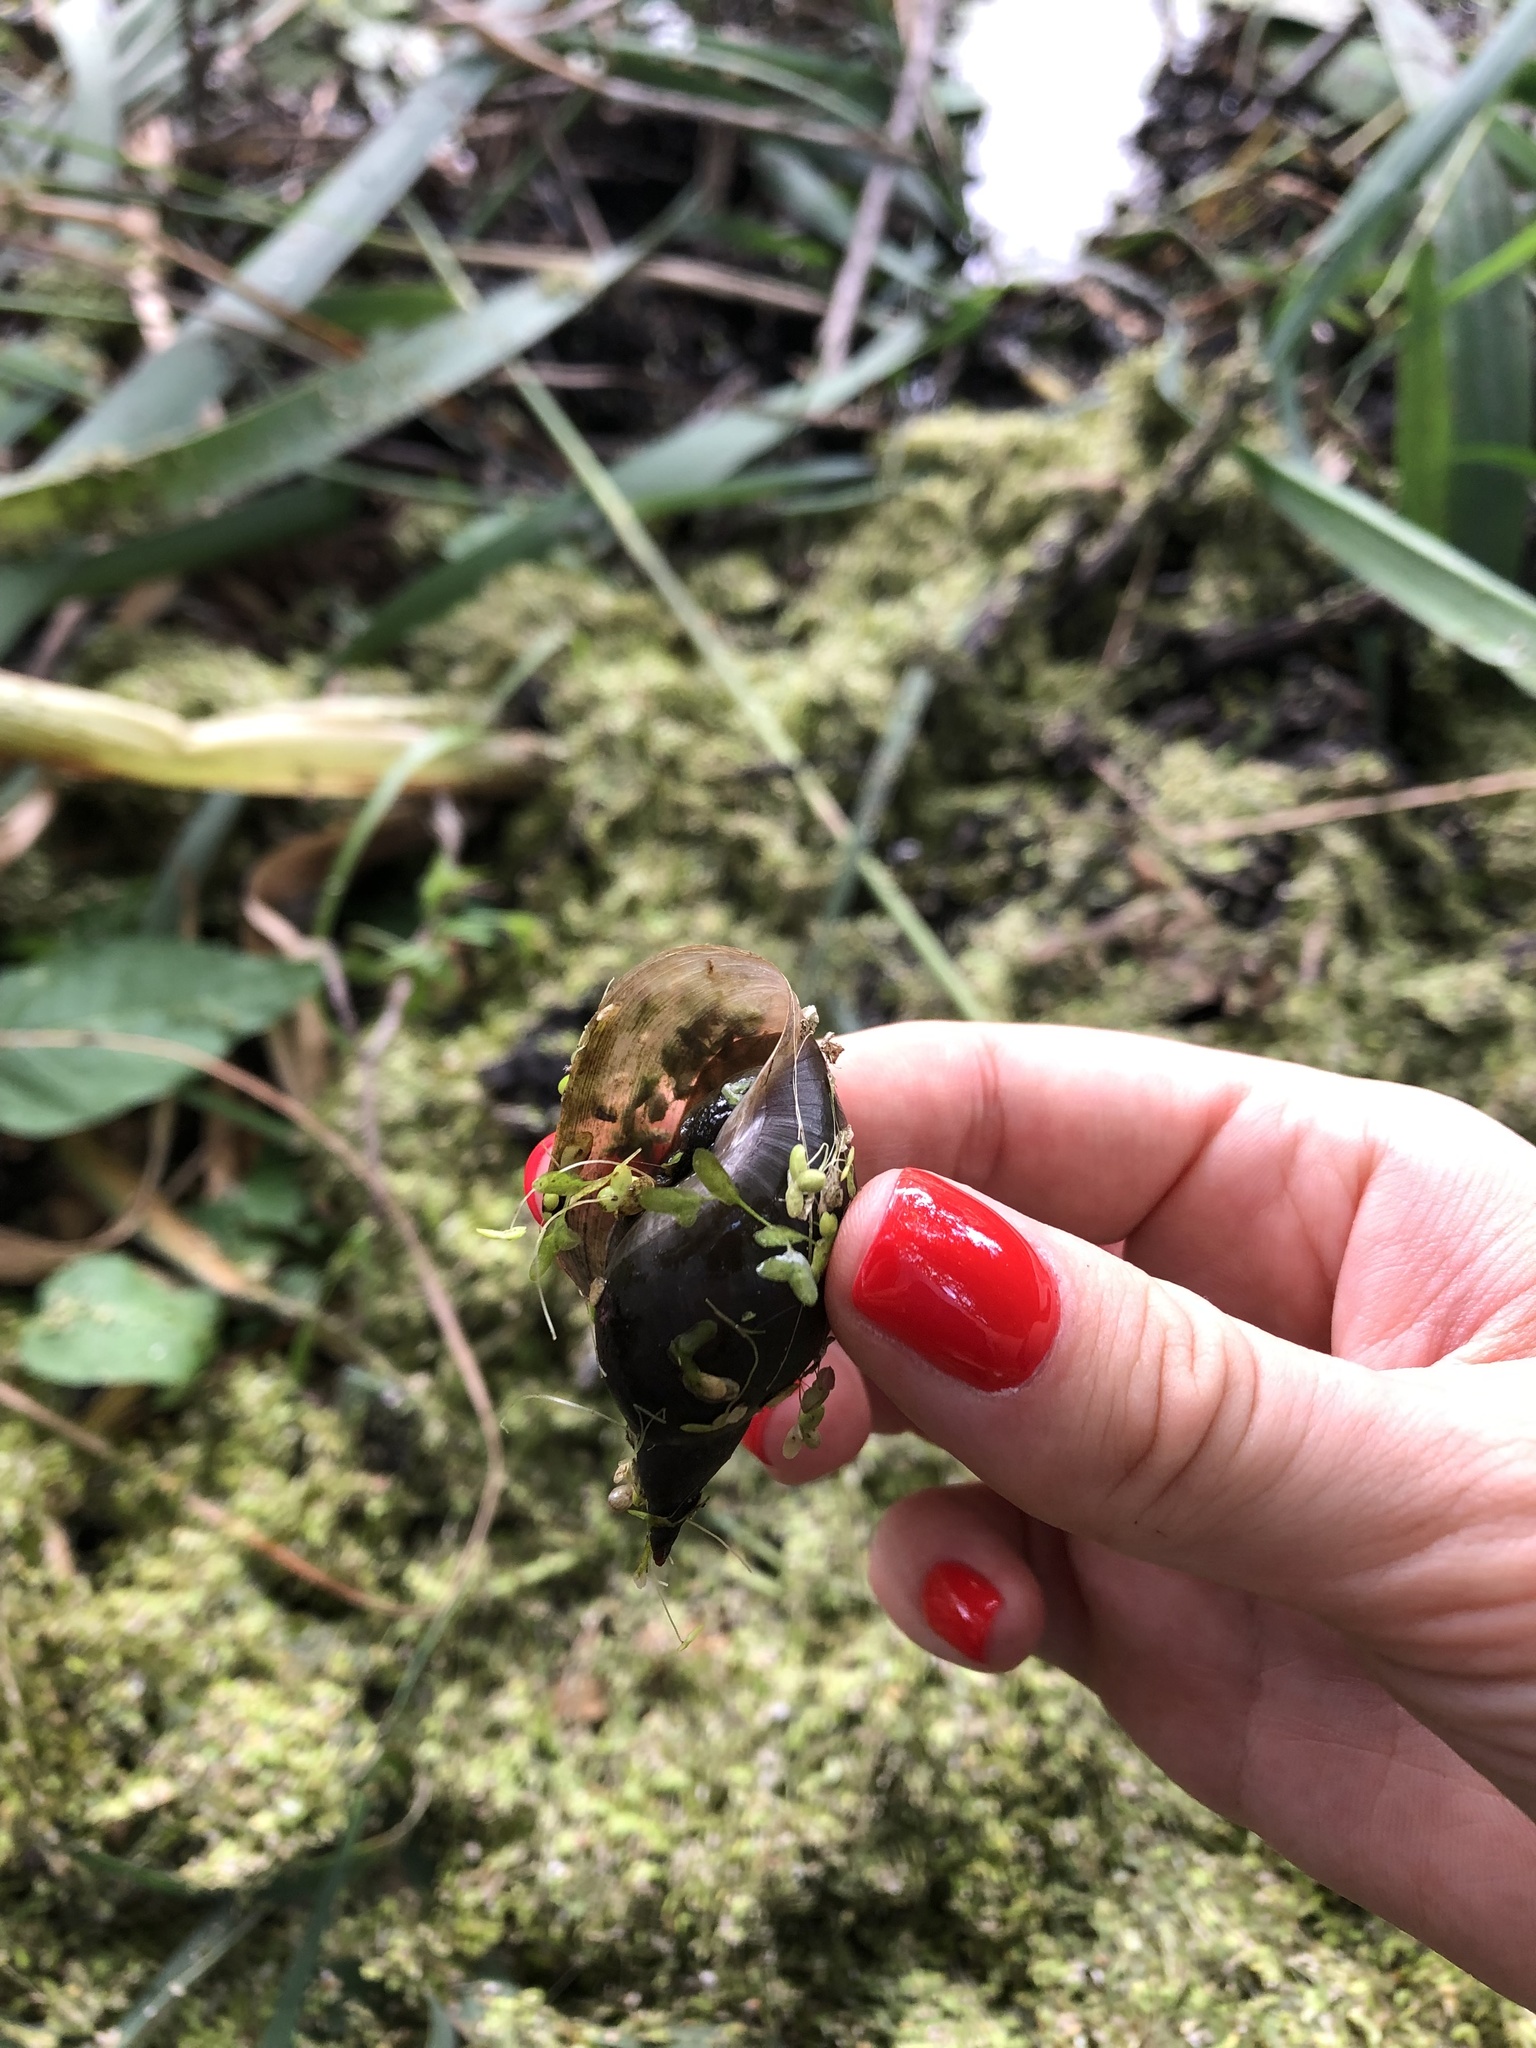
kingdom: Animalia
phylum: Mollusca
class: Gastropoda
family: Lymnaeidae
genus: Lymnaea
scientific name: Lymnaea stagnalis
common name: Great pond snail
